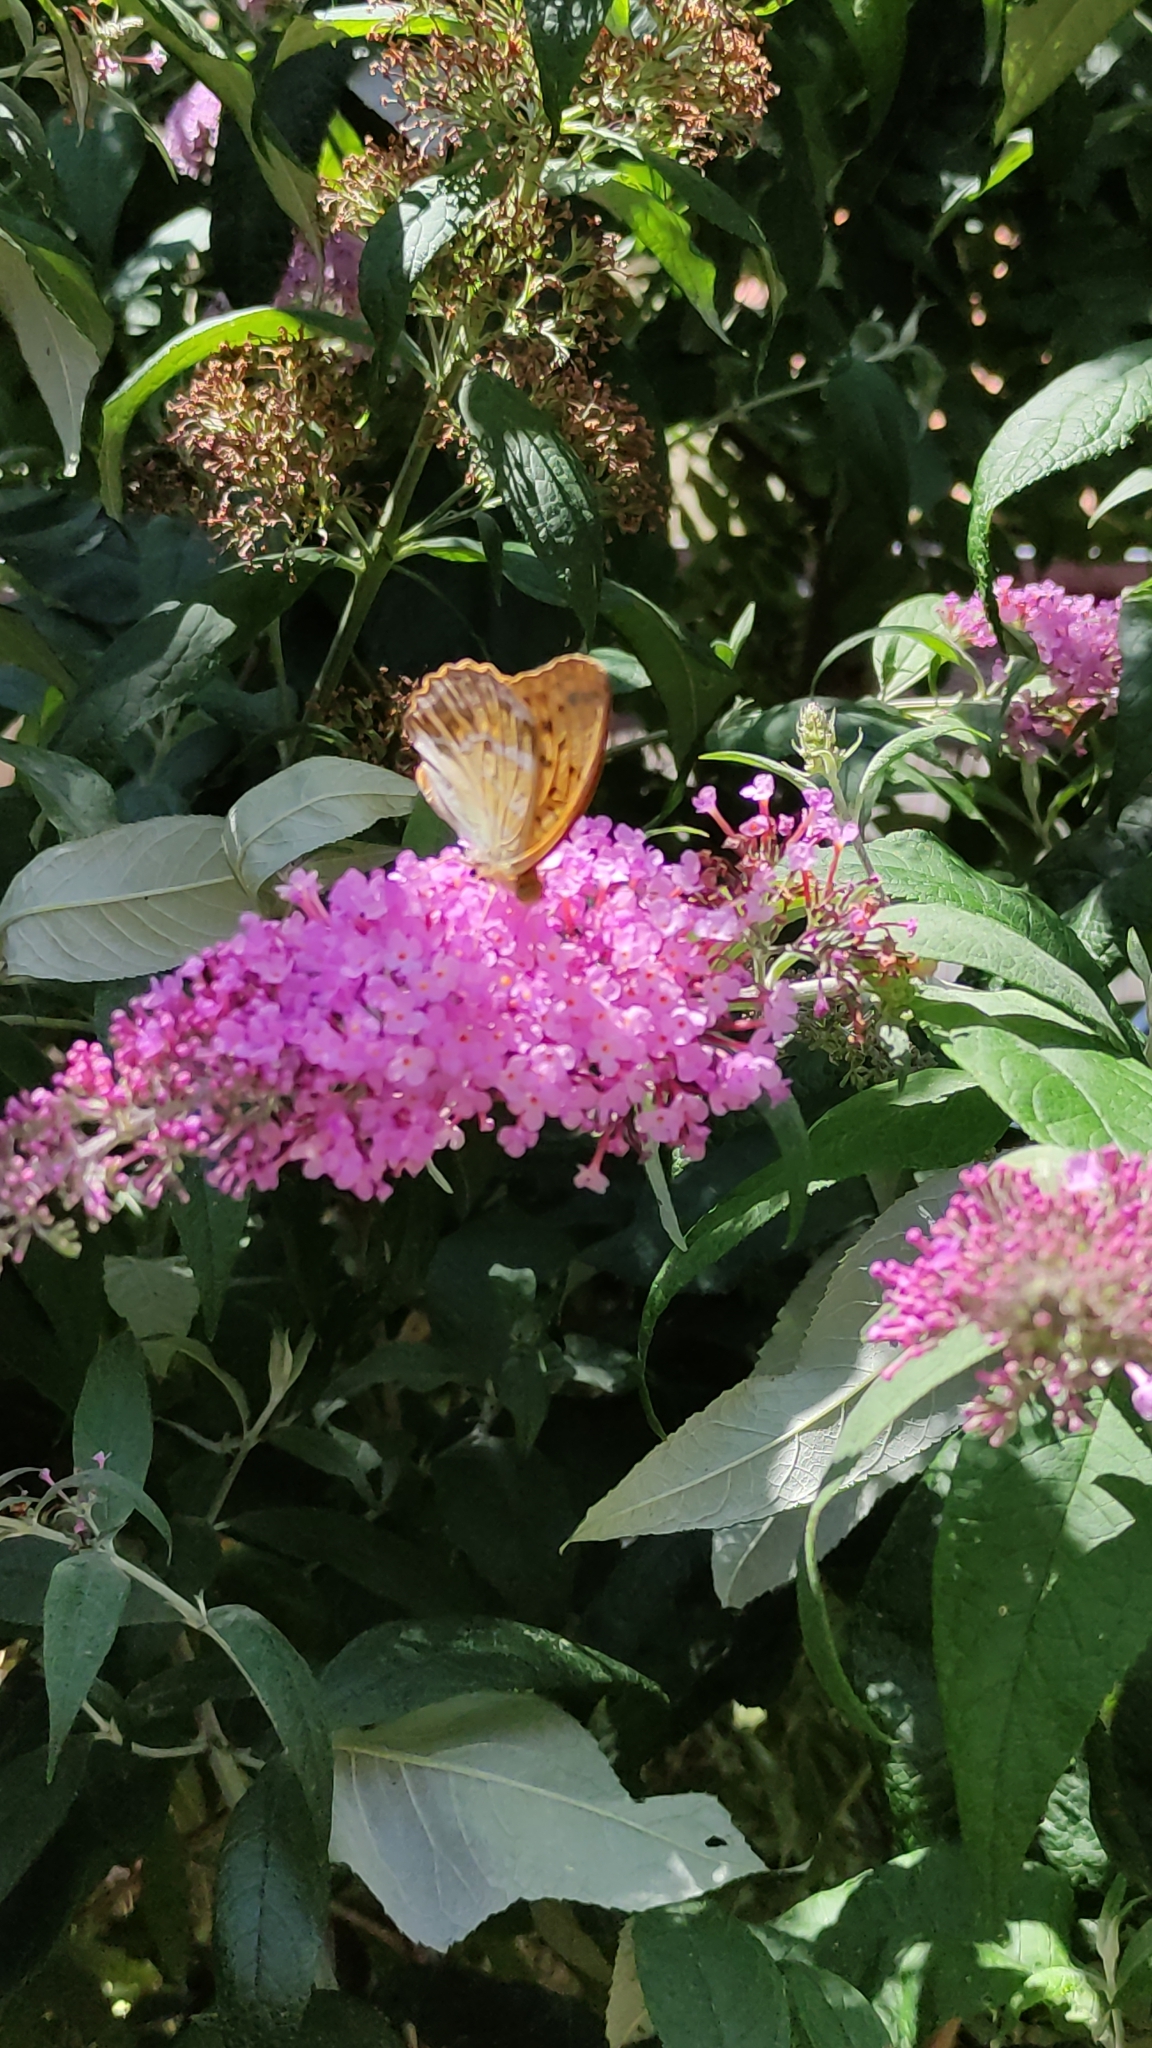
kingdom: Animalia
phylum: Arthropoda
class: Insecta
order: Lepidoptera
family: Nymphalidae
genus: Argynnis
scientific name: Argynnis paphia
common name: Silver-washed fritillary
